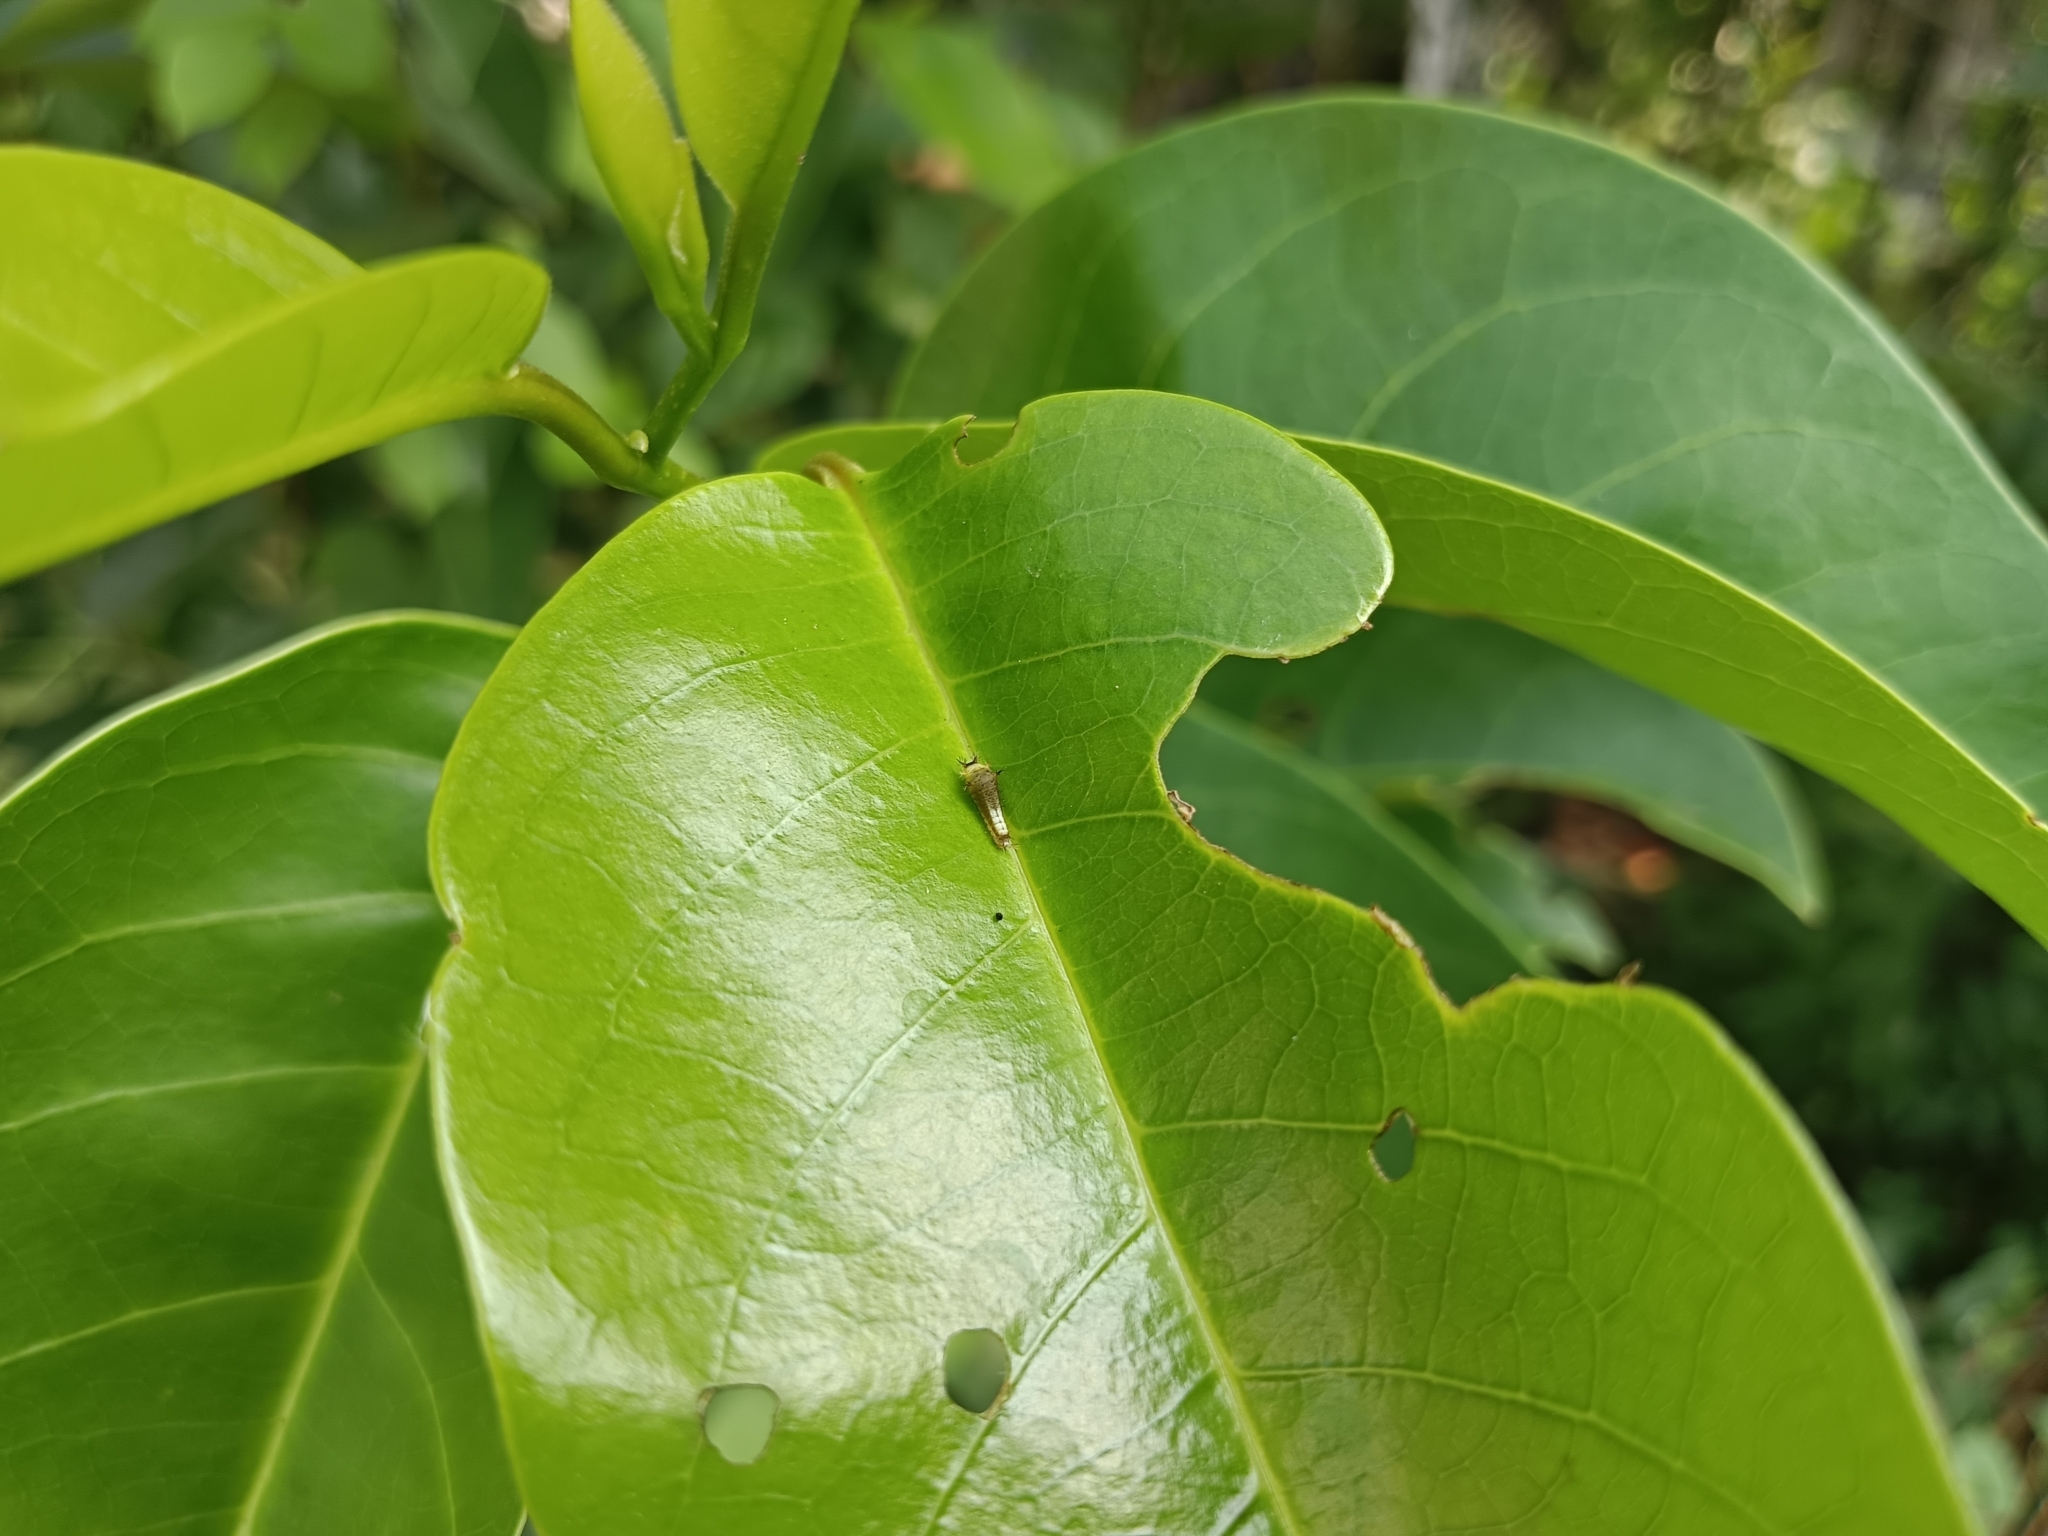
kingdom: Animalia
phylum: Arthropoda
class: Insecta
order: Lepidoptera
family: Papilionidae
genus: Graphium
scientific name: Graphium agamemnon
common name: Tailed jay
